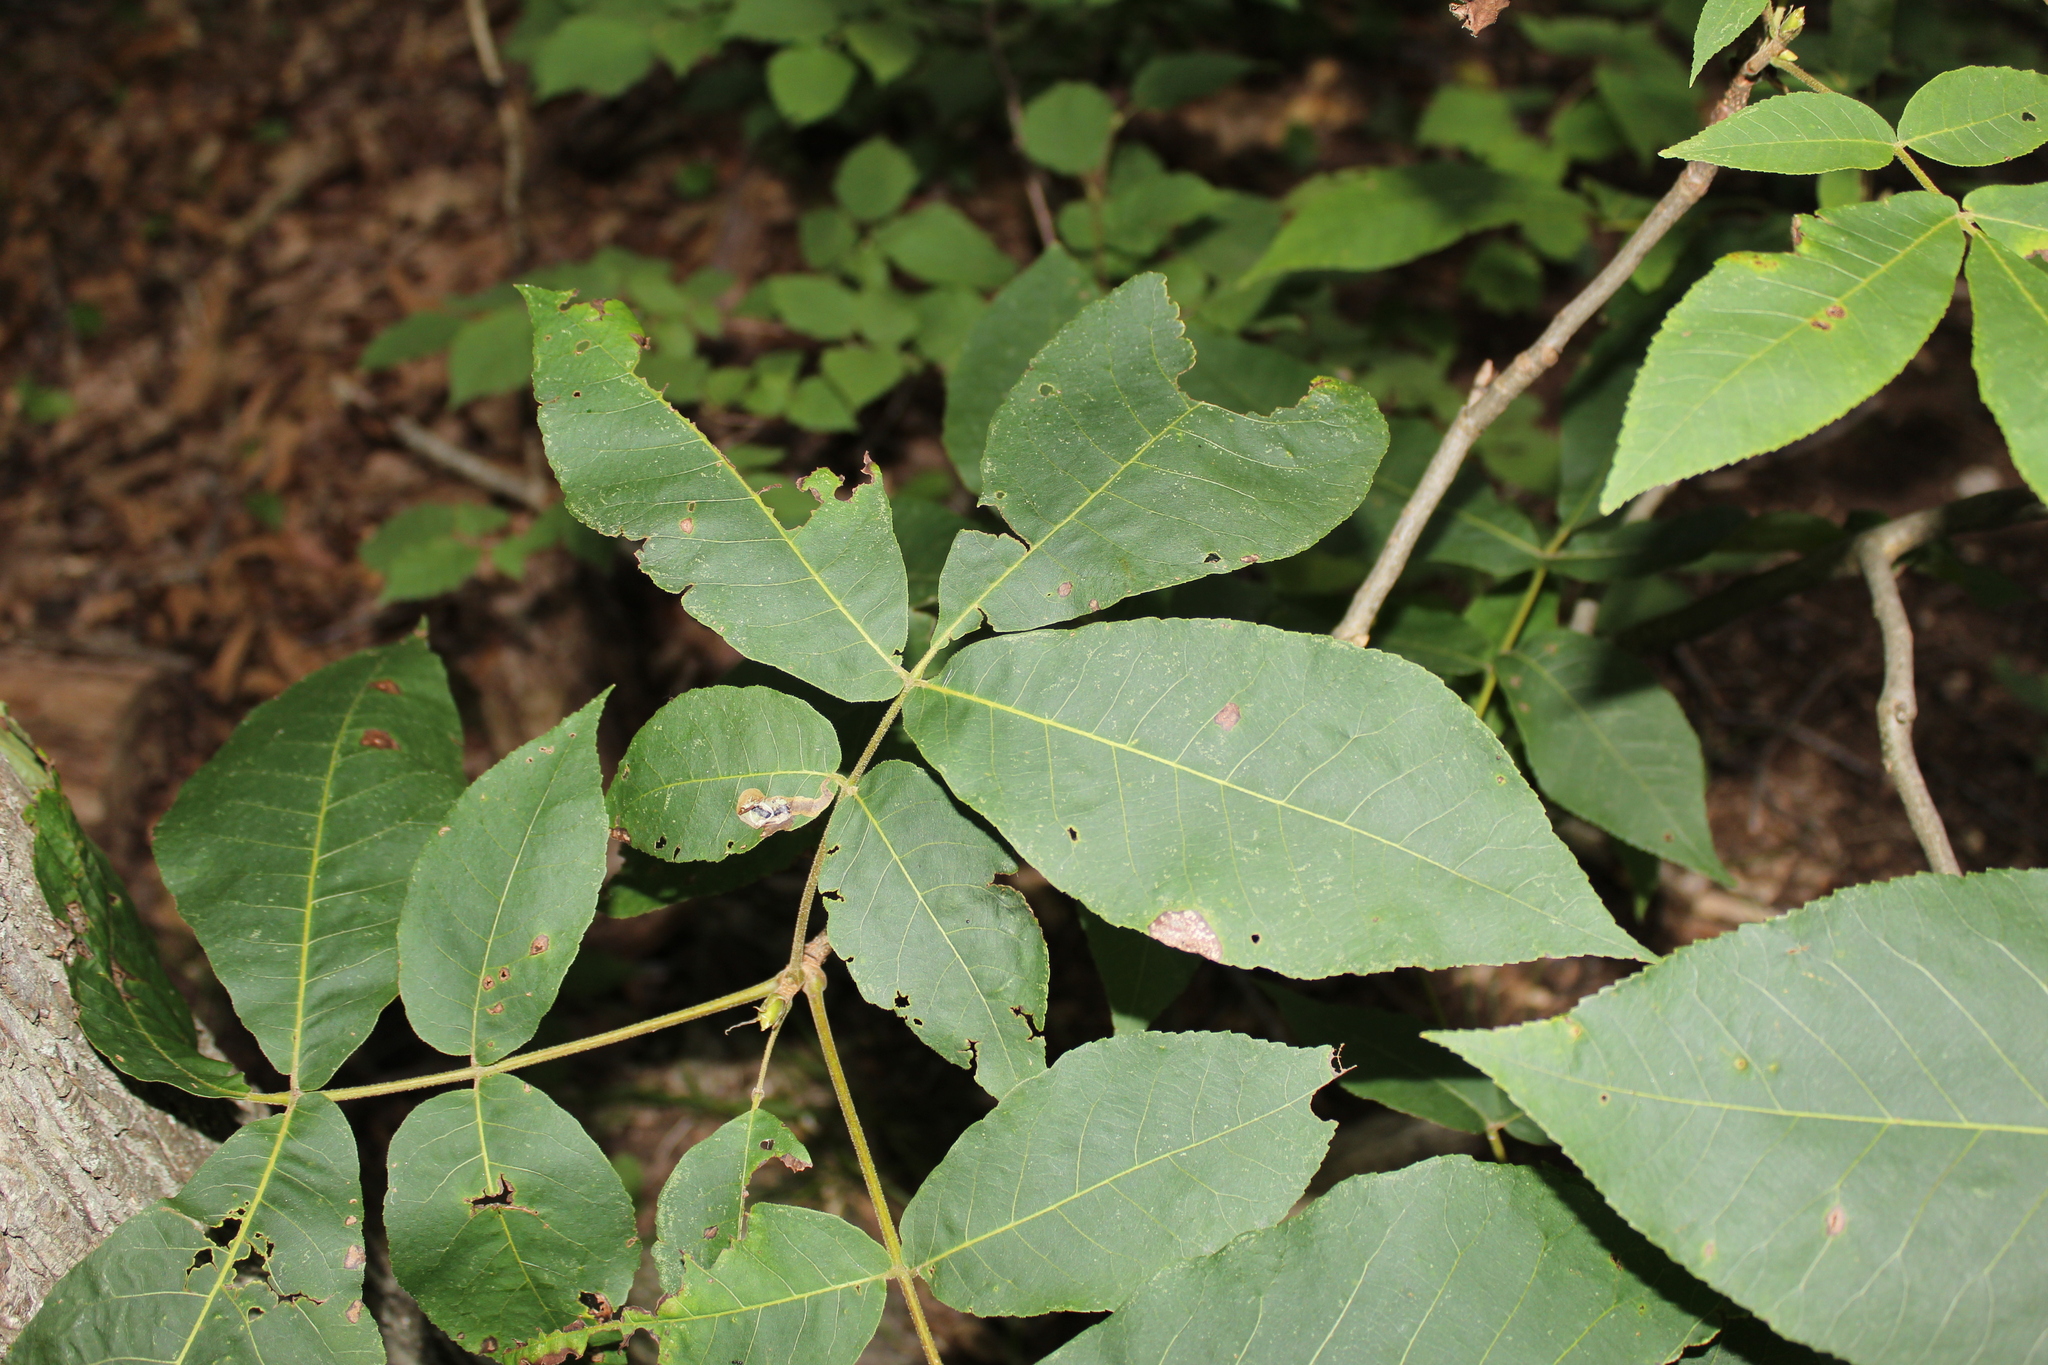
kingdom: Animalia
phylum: Arthropoda
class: Insecta
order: Lepidoptera
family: Gracillariidae
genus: Cameraria
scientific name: Cameraria caryaefoliella
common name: Pecan leafminer moth
